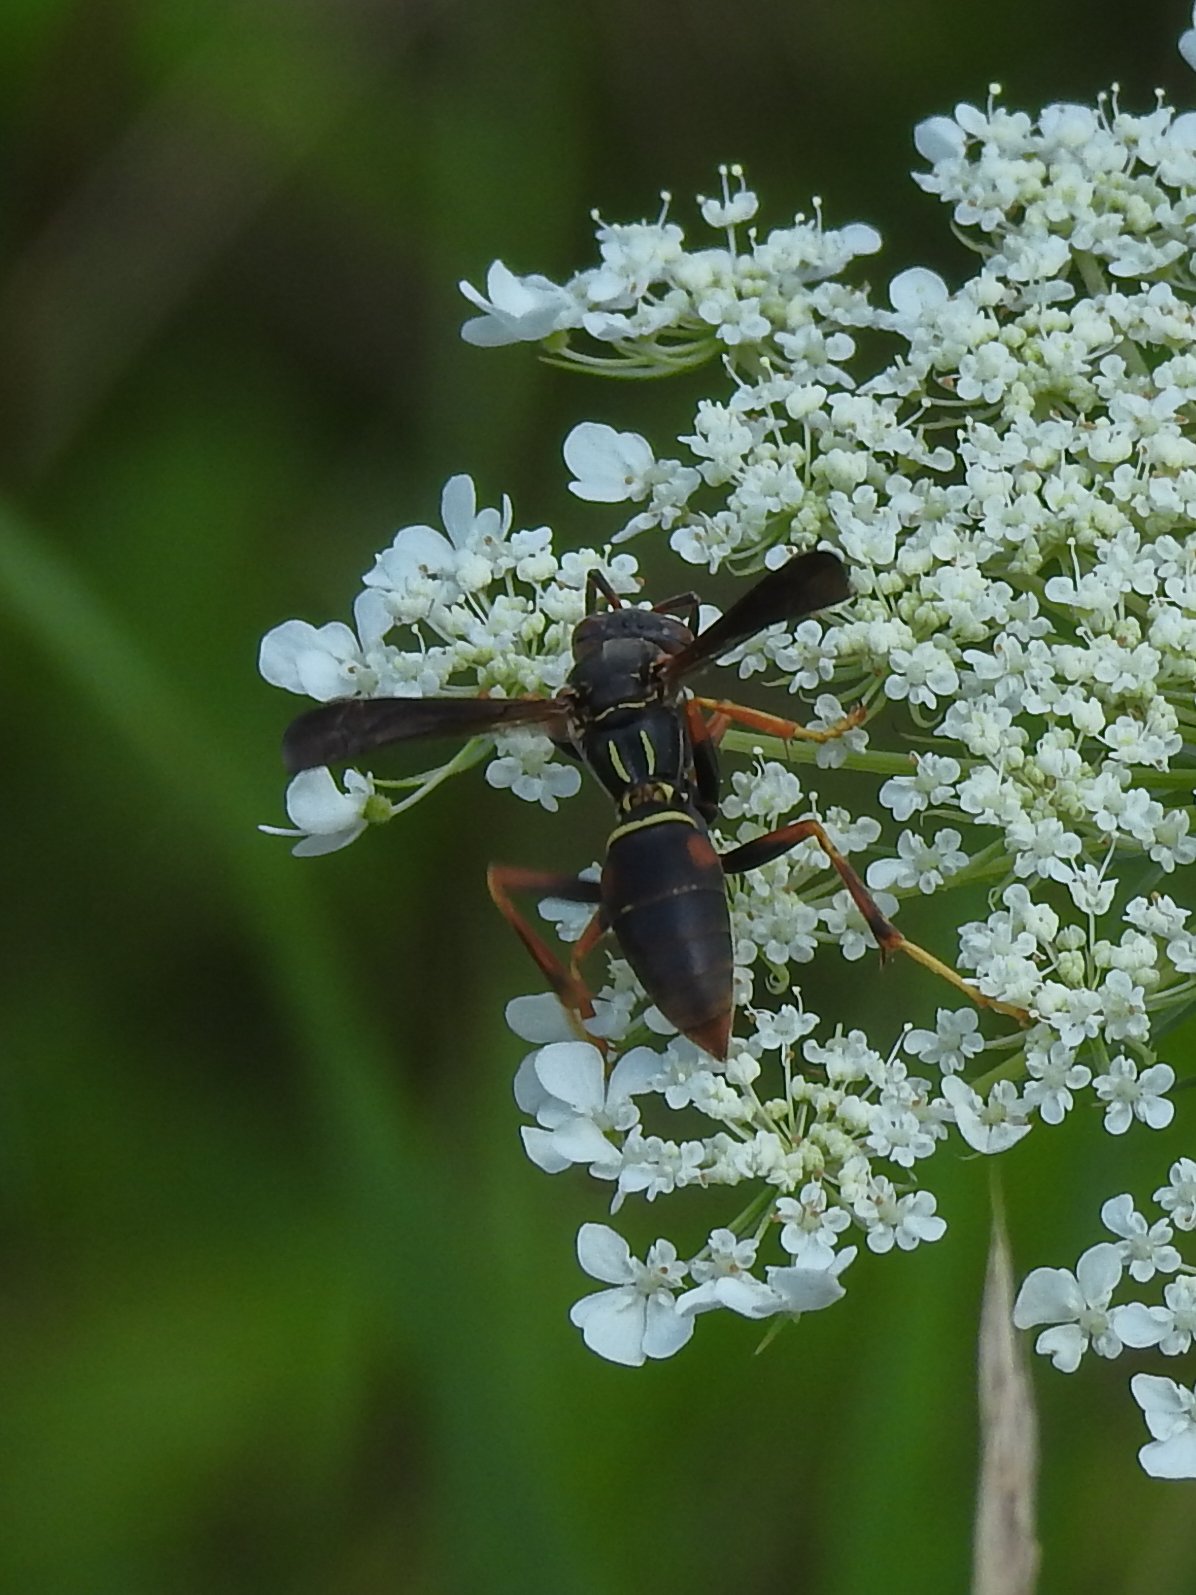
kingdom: Animalia
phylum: Arthropoda
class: Insecta
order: Hymenoptera
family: Eumenidae
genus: Polistes
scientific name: Polistes fuscatus
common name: Dark paper wasp
